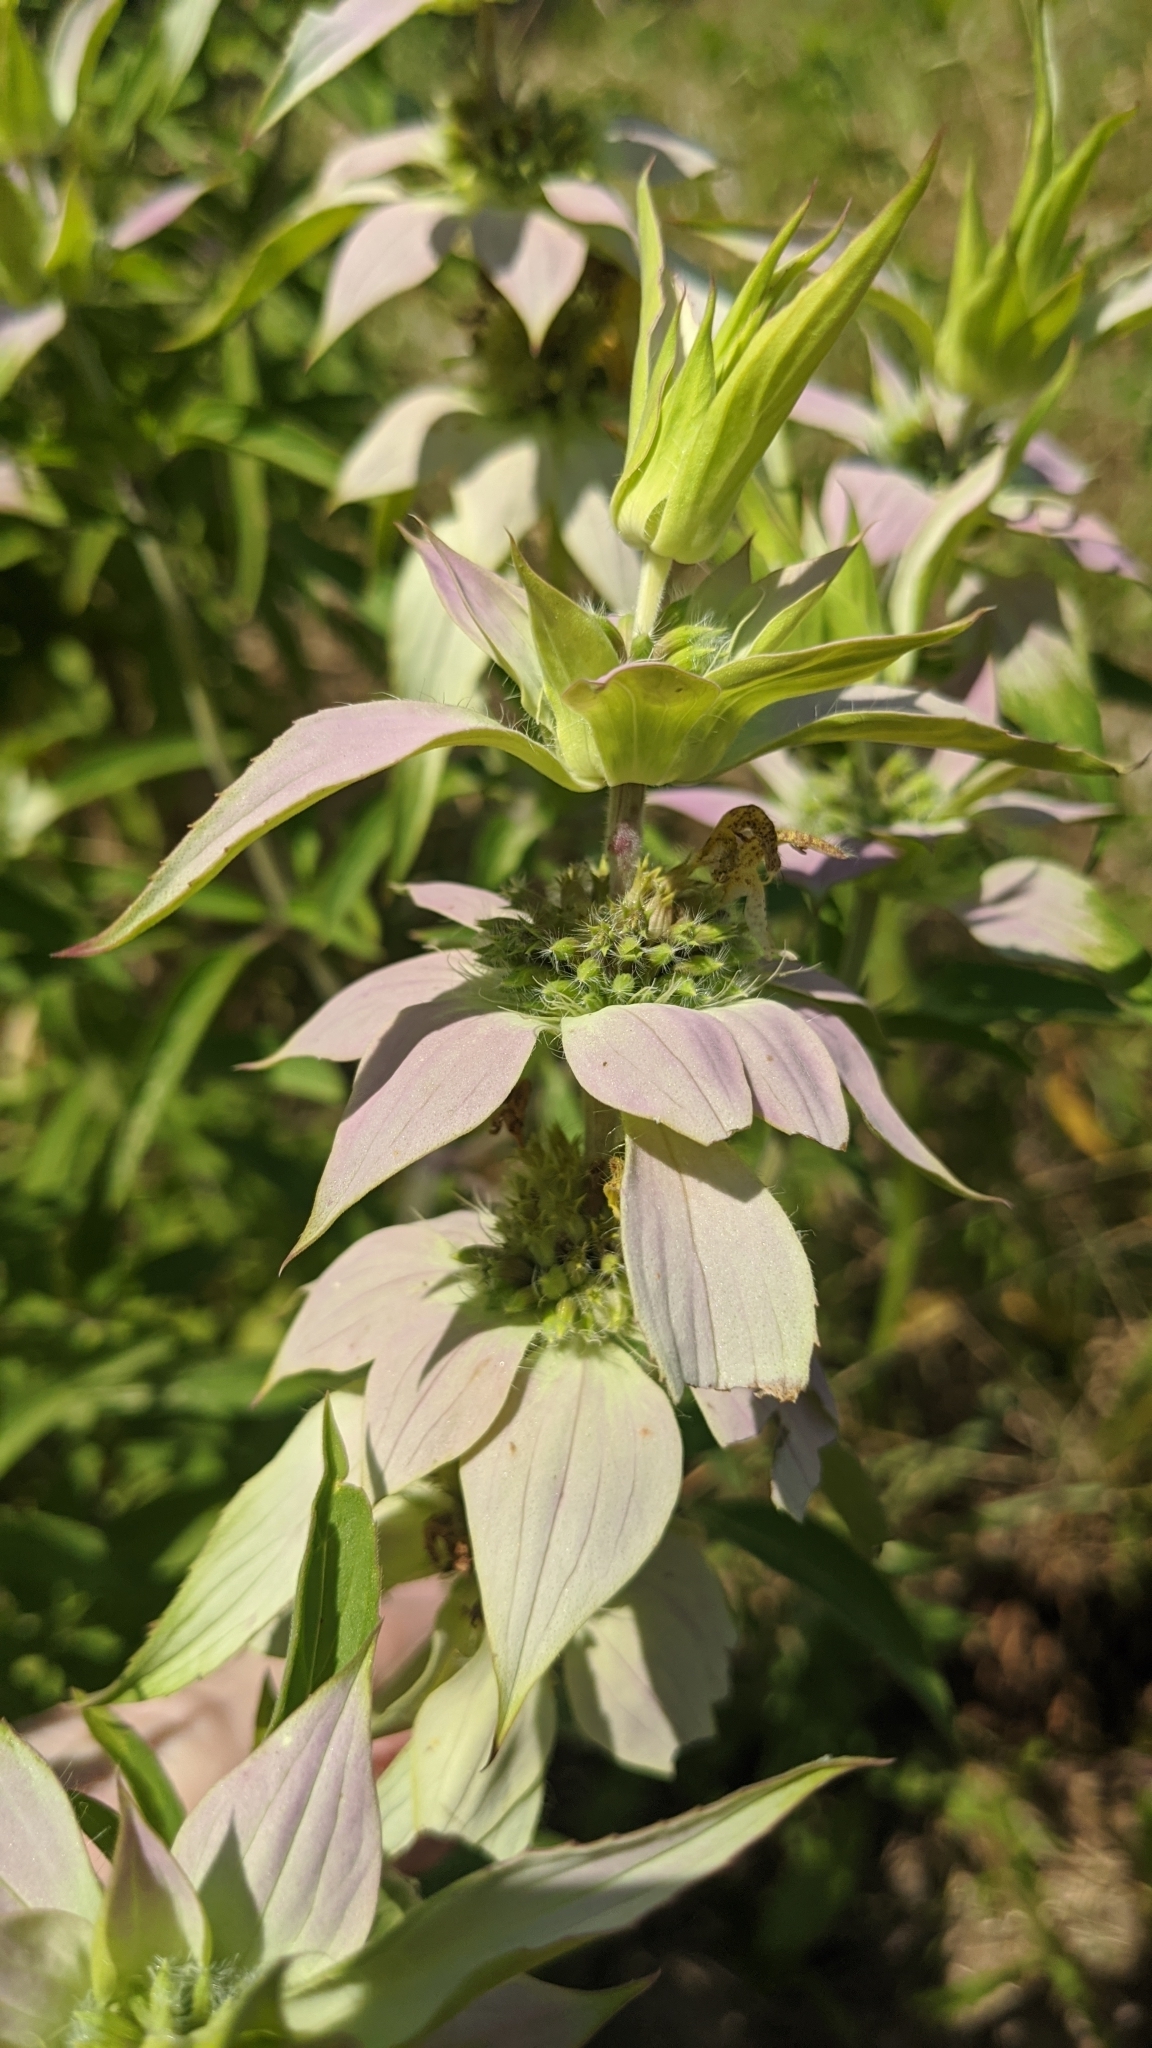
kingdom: Plantae
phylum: Tracheophyta
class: Magnoliopsida
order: Lamiales
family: Lamiaceae
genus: Monarda
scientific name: Monarda punctata
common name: Dotted monarda
